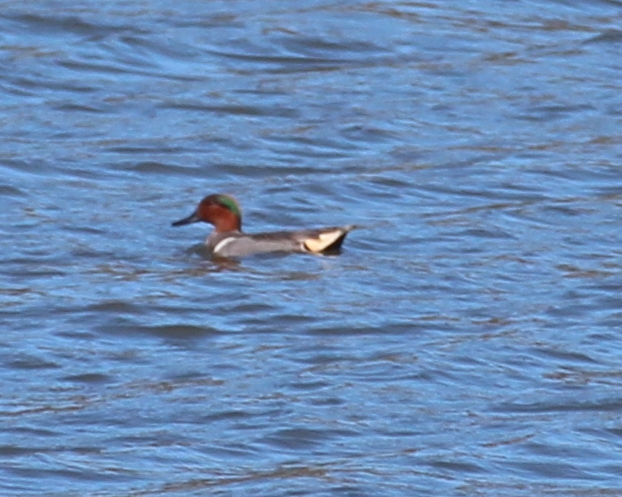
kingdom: Animalia
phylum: Chordata
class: Aves
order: Anseriformes
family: Anatidae
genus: Anas
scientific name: Anas crecca
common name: Eurasian teal
